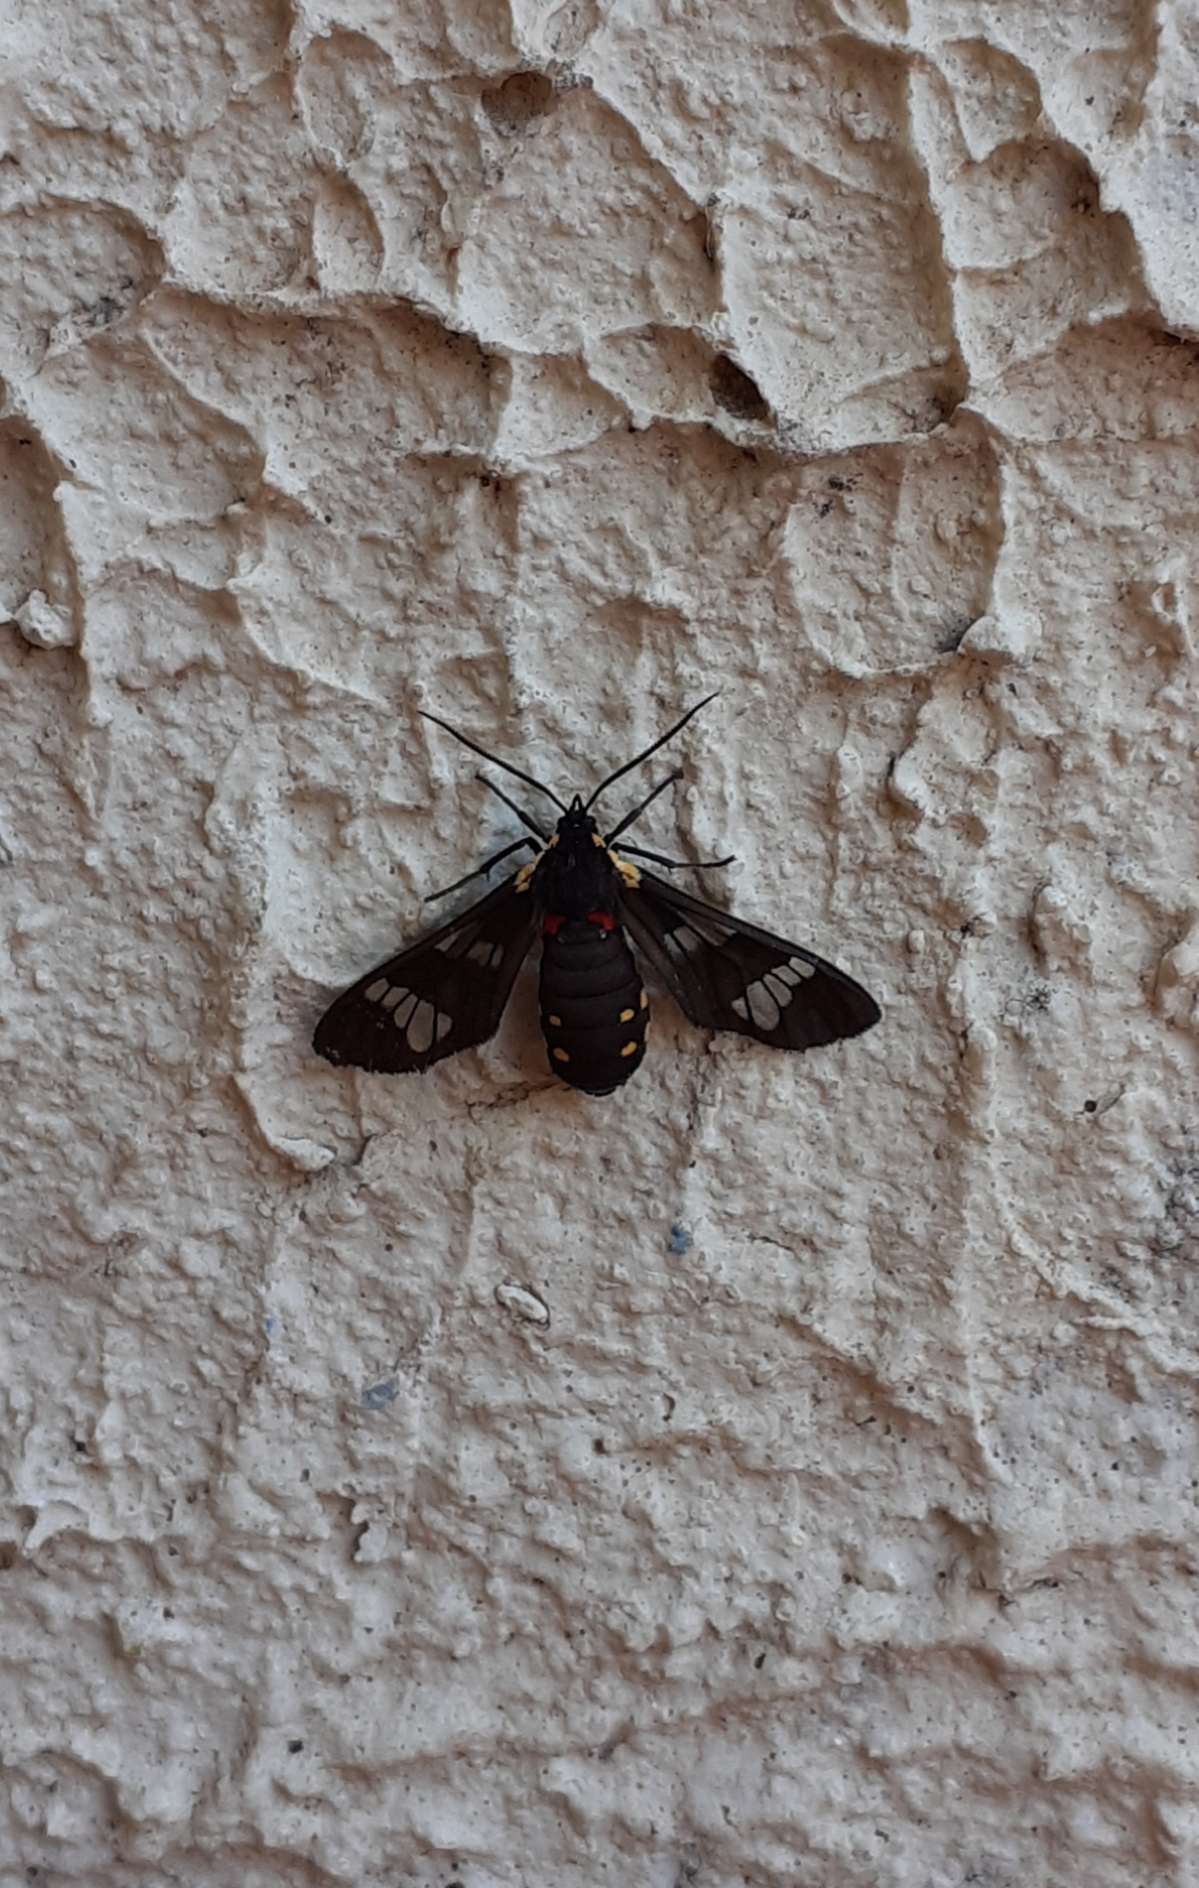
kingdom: Animalia
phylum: Arthropoda
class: Insecta
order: Lepidoptera
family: Erebidae
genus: Eurata
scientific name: Eurata hermione
